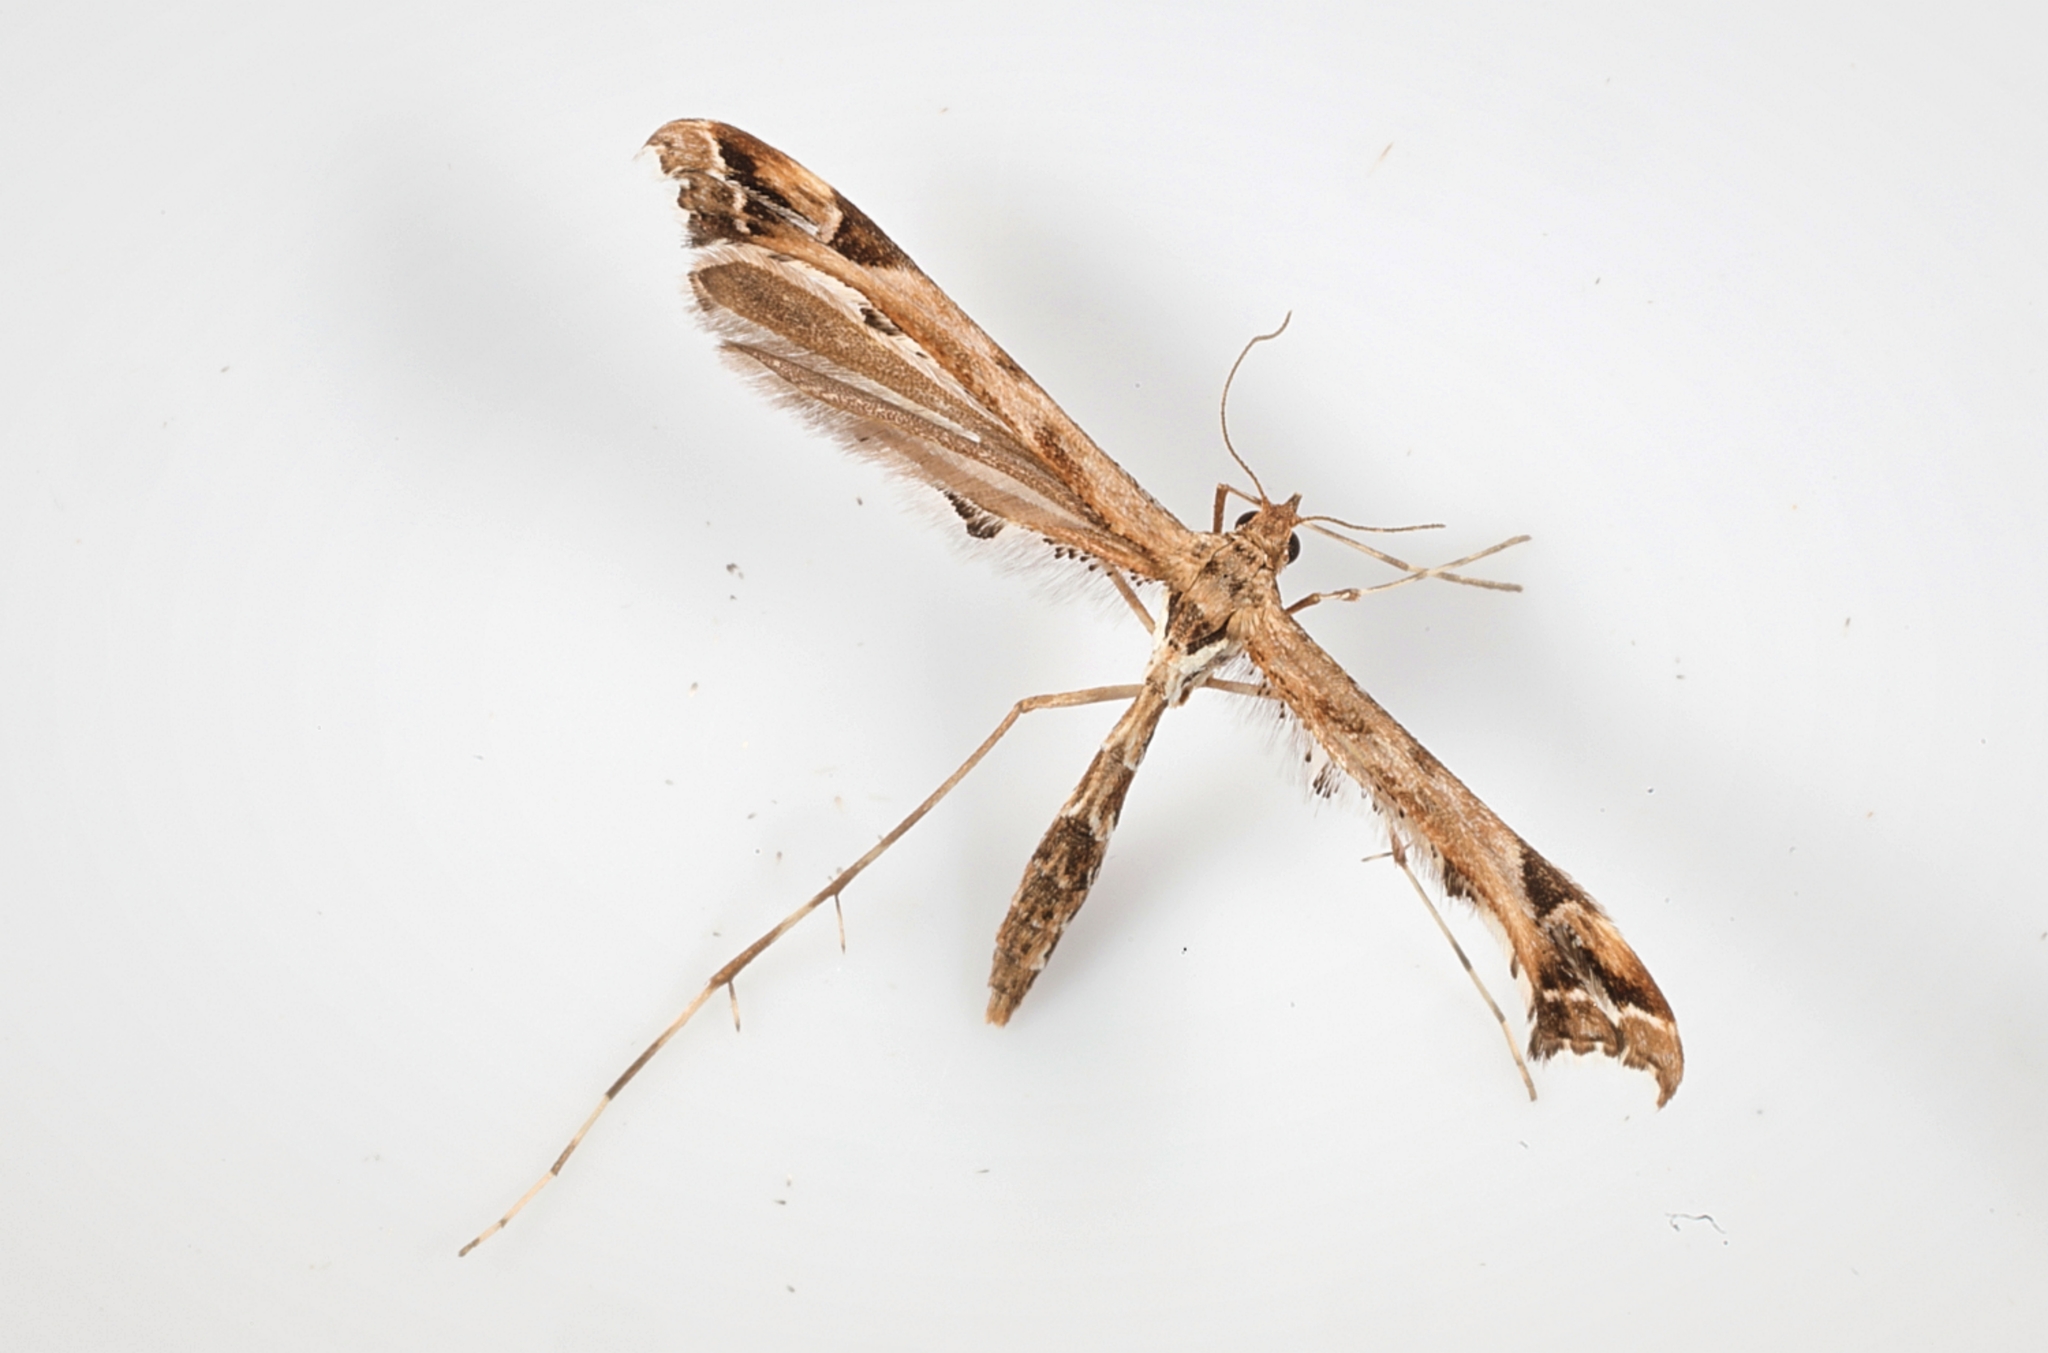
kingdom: Animalia
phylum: Arthropoda
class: Insecta
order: Lepidoptera
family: Pterophoridae
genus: Amblyptilia
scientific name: Amblyptilia acanthadactyla
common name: Beautiful plume
